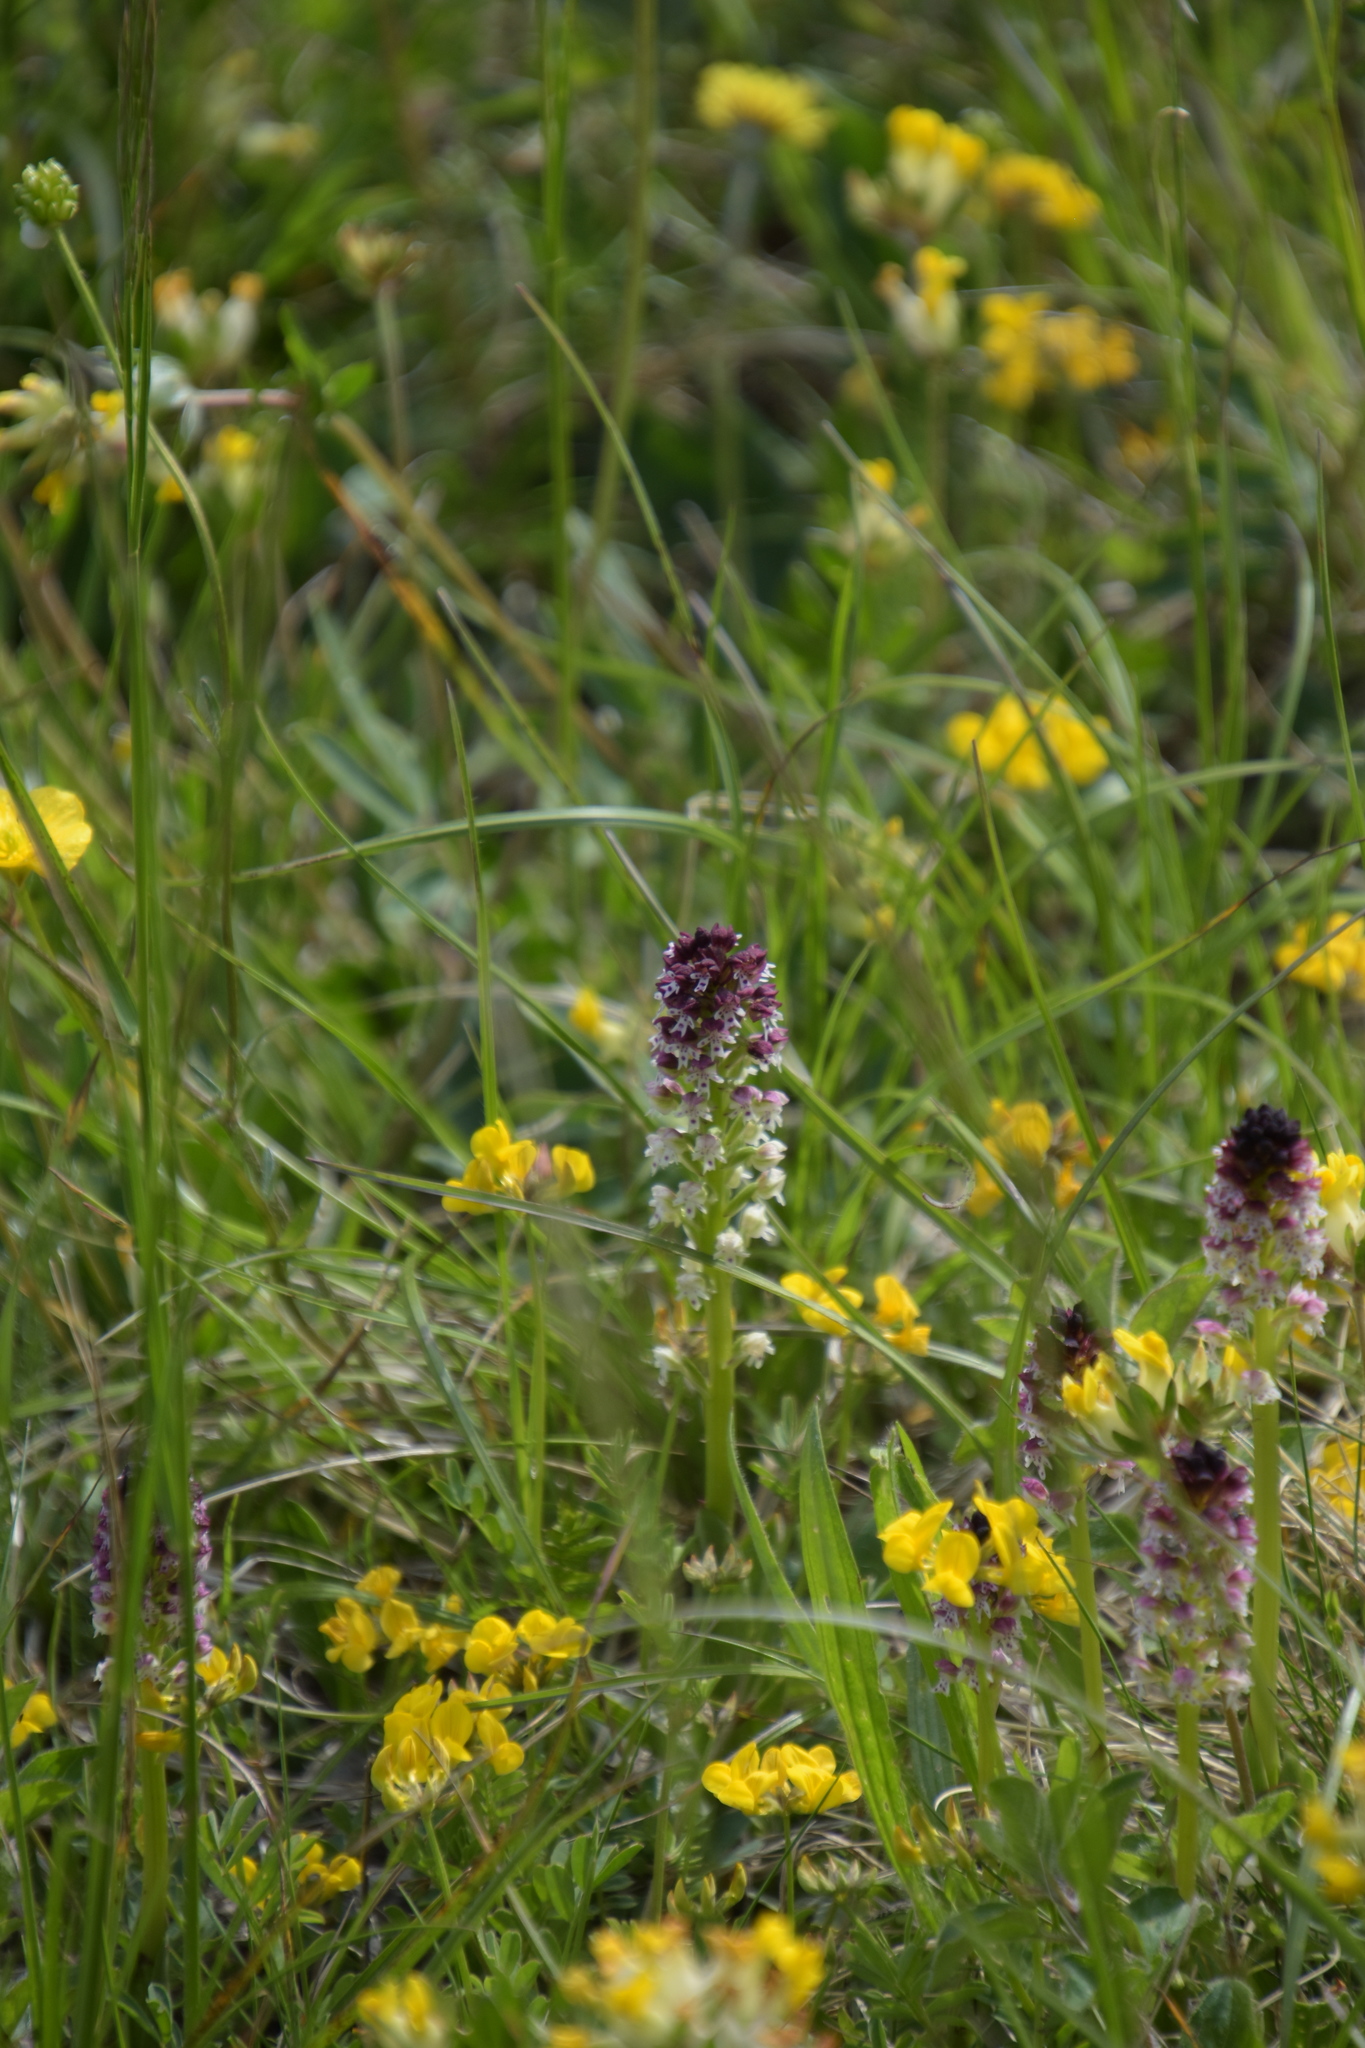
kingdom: Plantae
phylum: Tracheophyta
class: Liliopsida
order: Asparagales
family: Orchidaceae
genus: Neotinea
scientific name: Neotinea ustulata
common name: Burnt orchid
